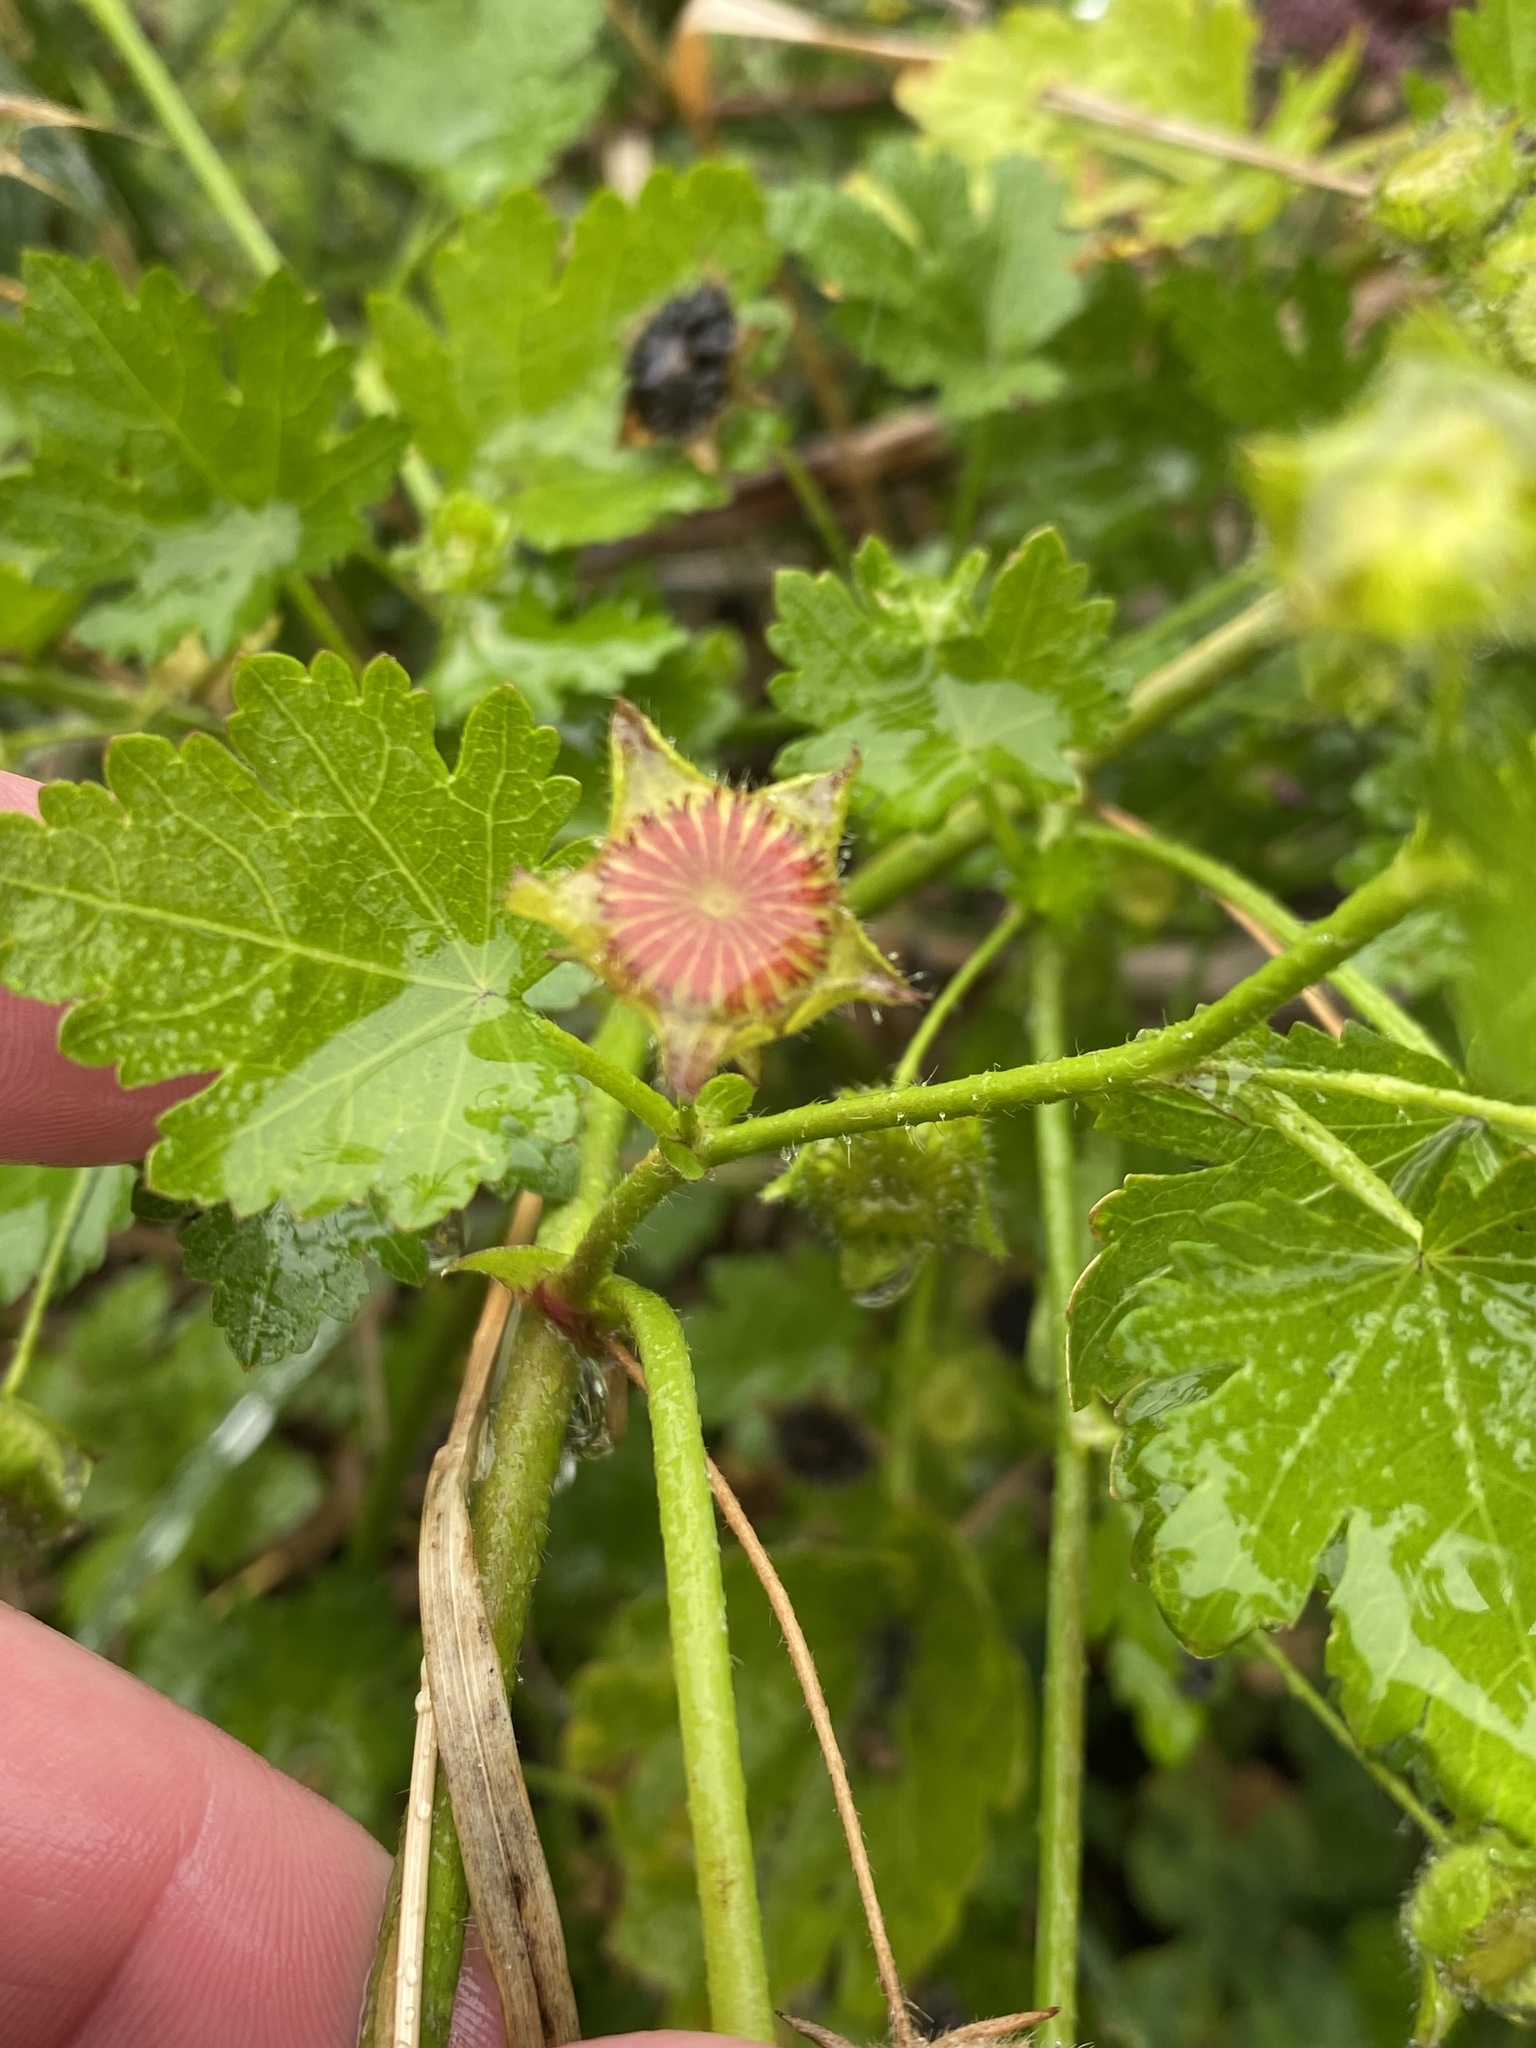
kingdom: Plantae
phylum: Tracheophyta
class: Magnoliopsida
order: Malvales
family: Malvaceae
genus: Modiola
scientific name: Modiola caroliniana
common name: Carolina bristlemallow
